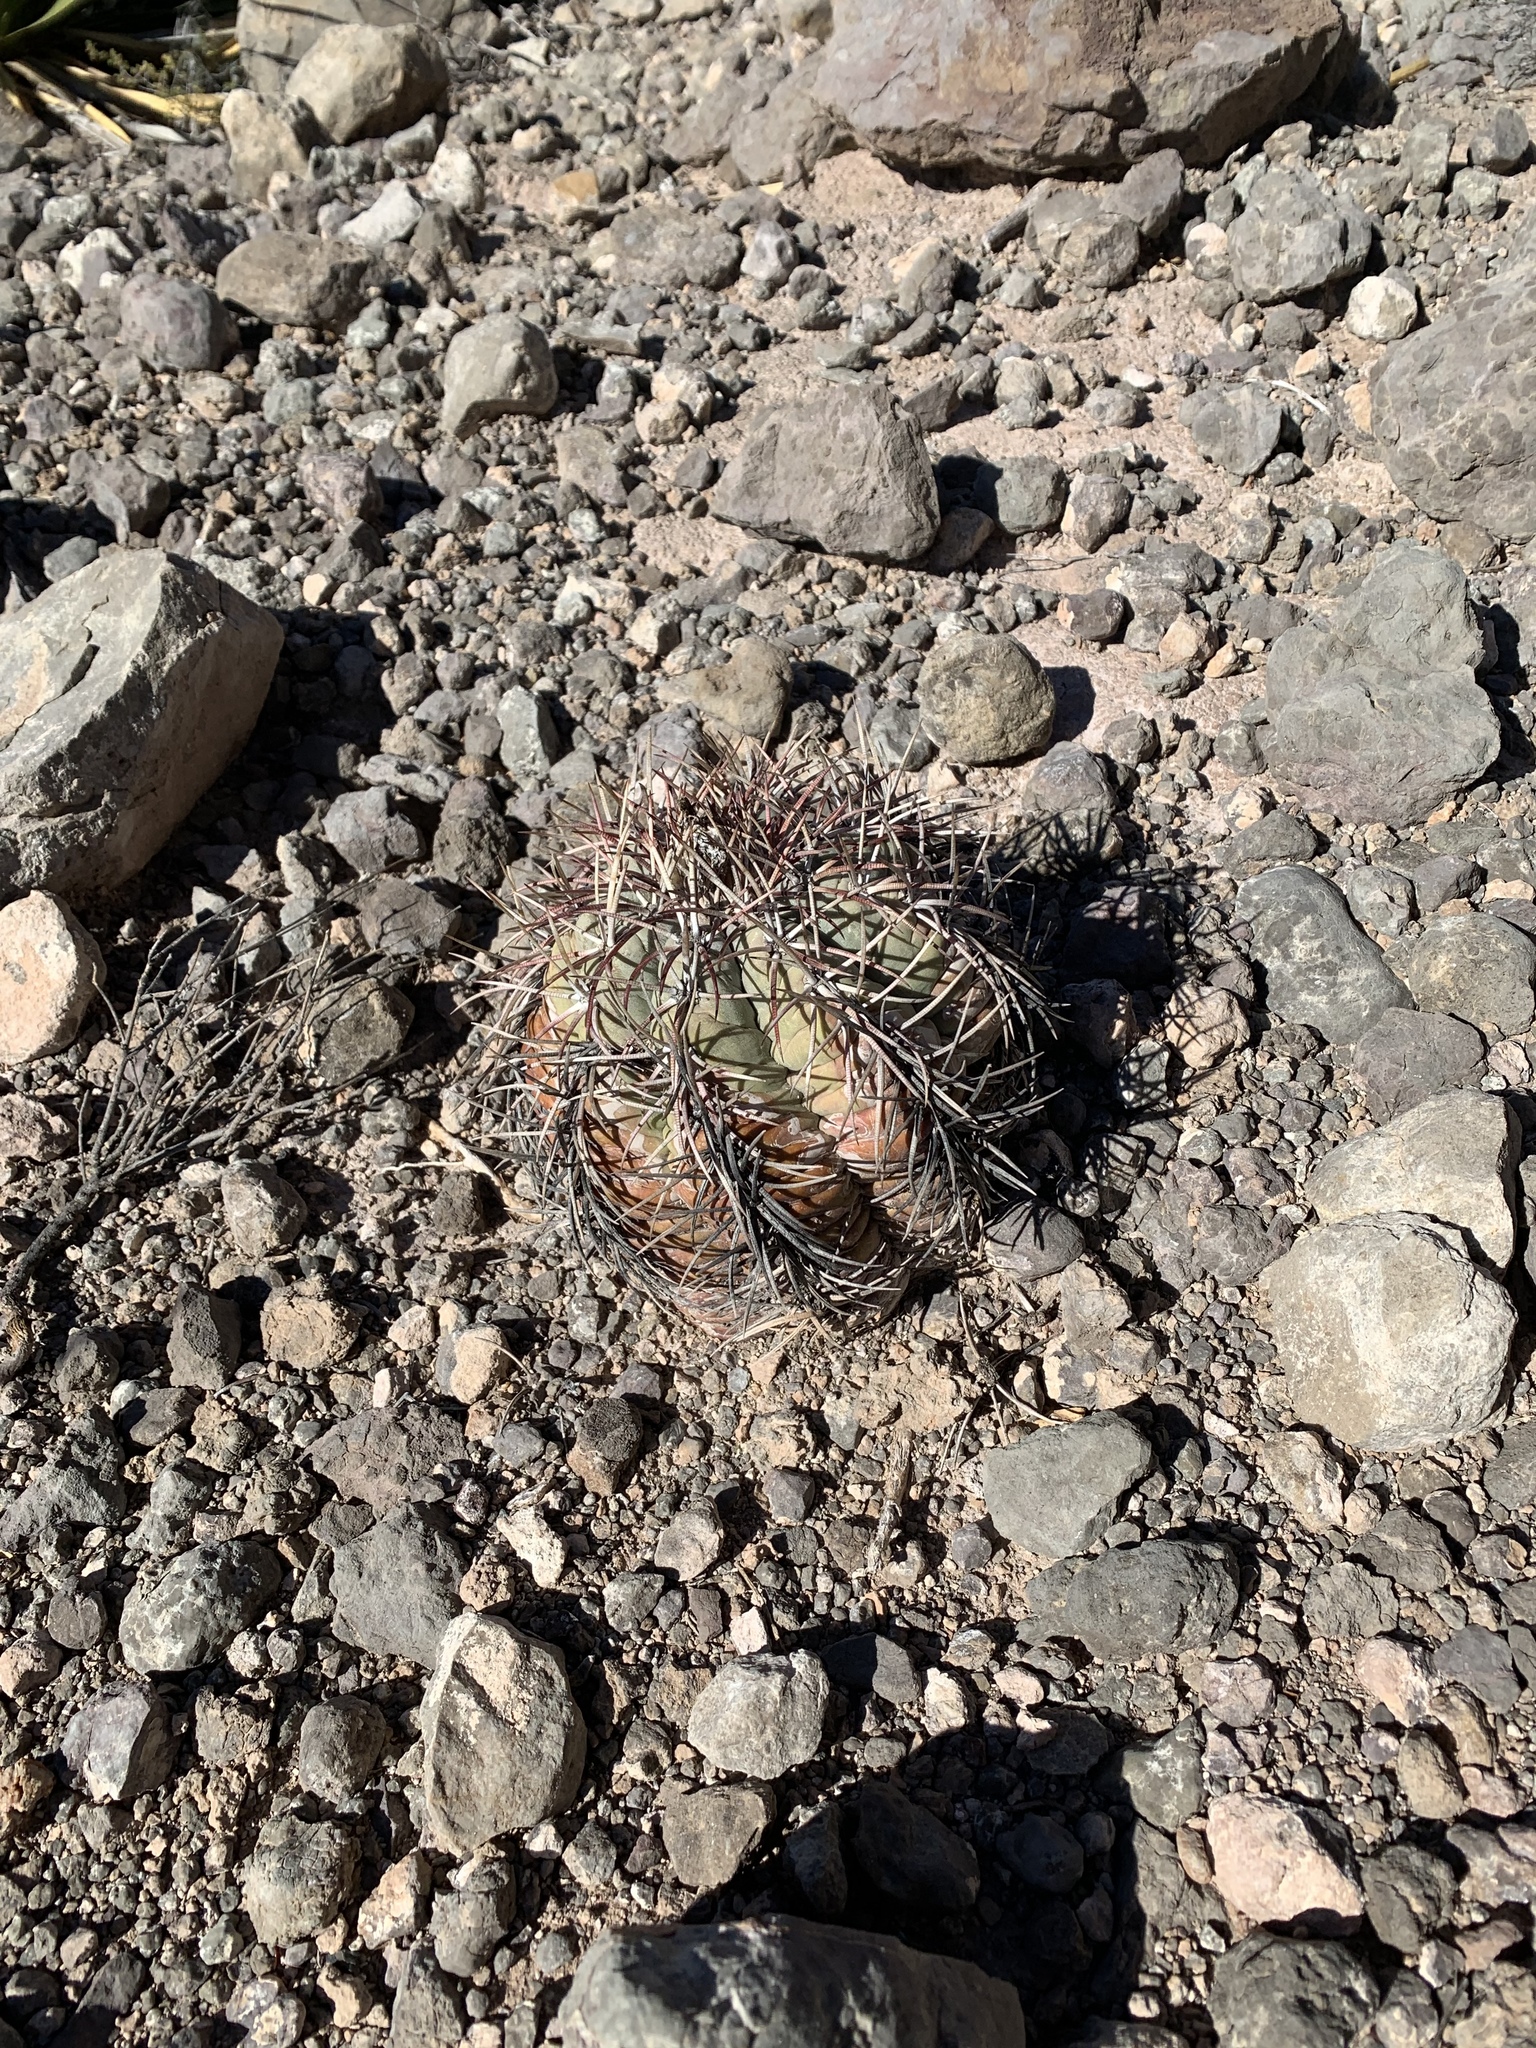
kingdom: Plantae
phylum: Tracheophyta
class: Magnoliopsida
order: Caryophyllales
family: Cactaceae
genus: Echinocactus
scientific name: Echinocactus horizonthalonius
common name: Devilshead
